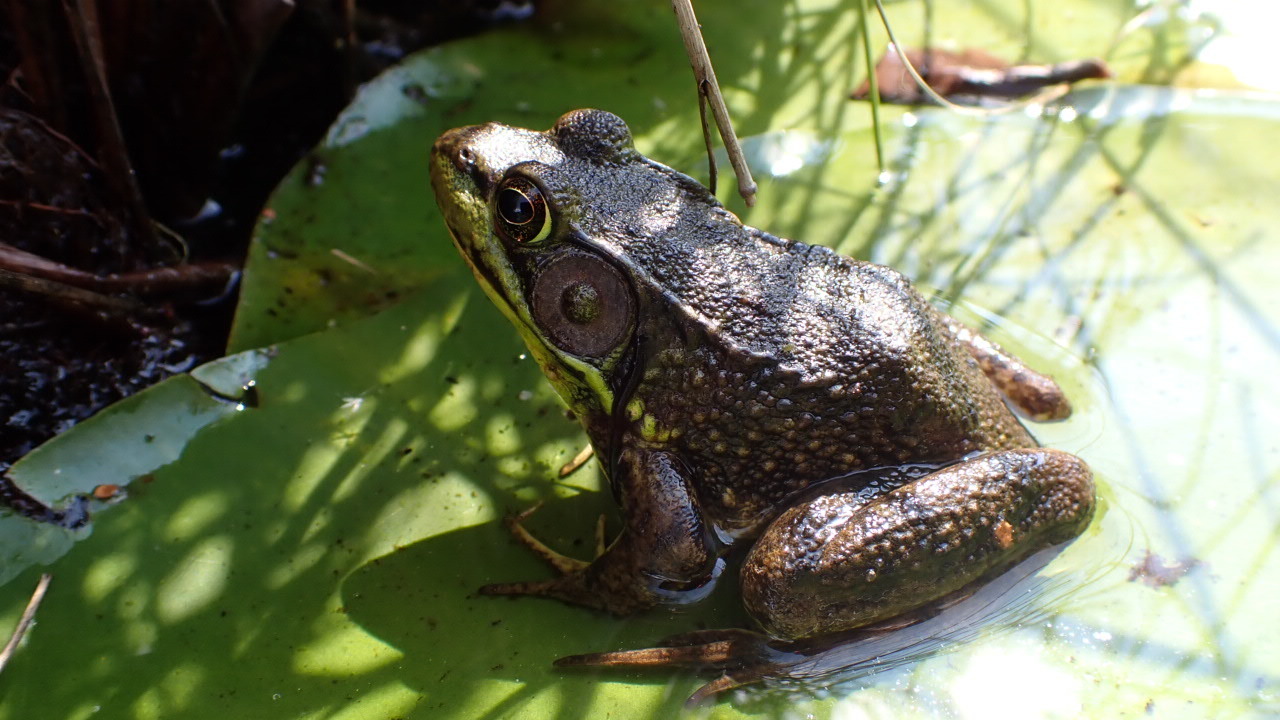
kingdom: Animalia
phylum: Chordata
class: Amphibia
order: Anura
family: Ranidae
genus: Lithobates
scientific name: Lithobates clamitans
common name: Green frog
